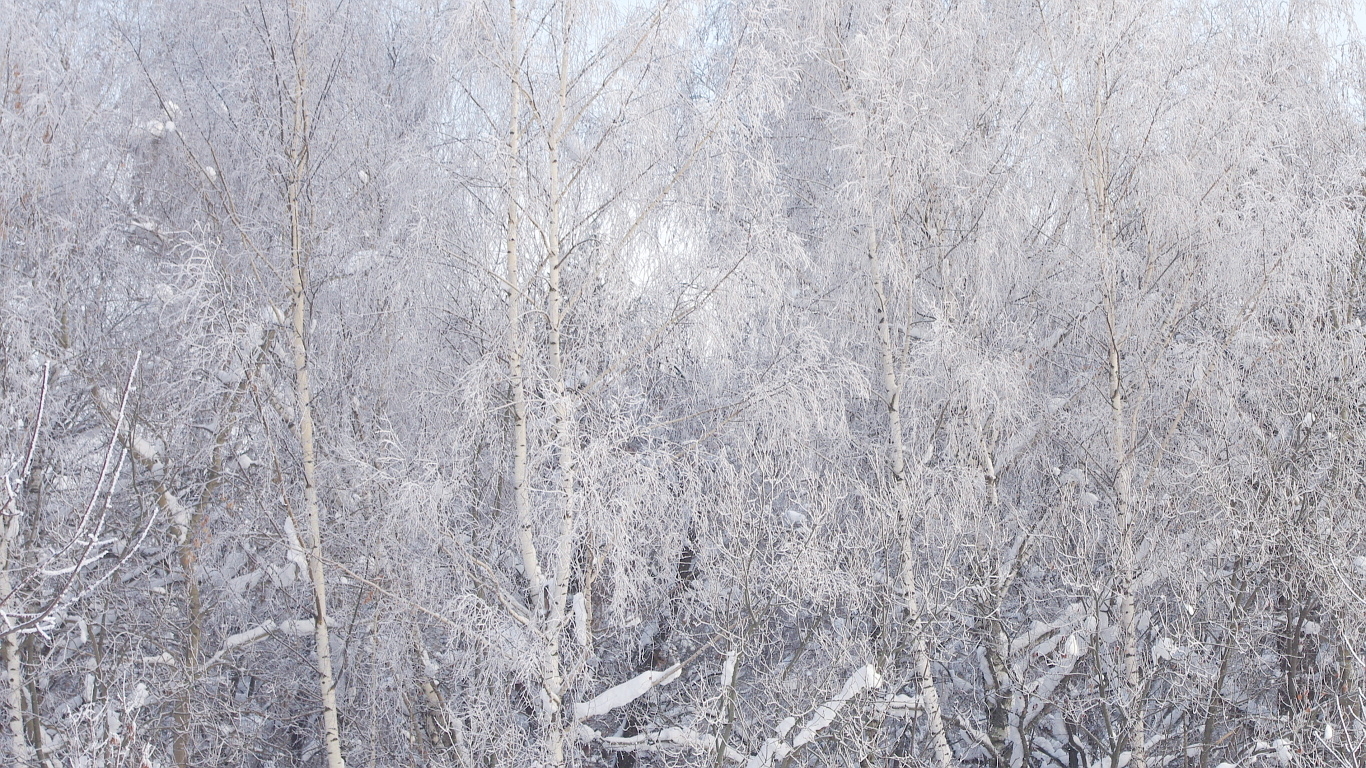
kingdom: Plantae
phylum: Tracheophyta
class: Magnoliopsida
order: Fagales
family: Betulaceae
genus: Betula
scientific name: Betula pendula
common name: Silver birch
